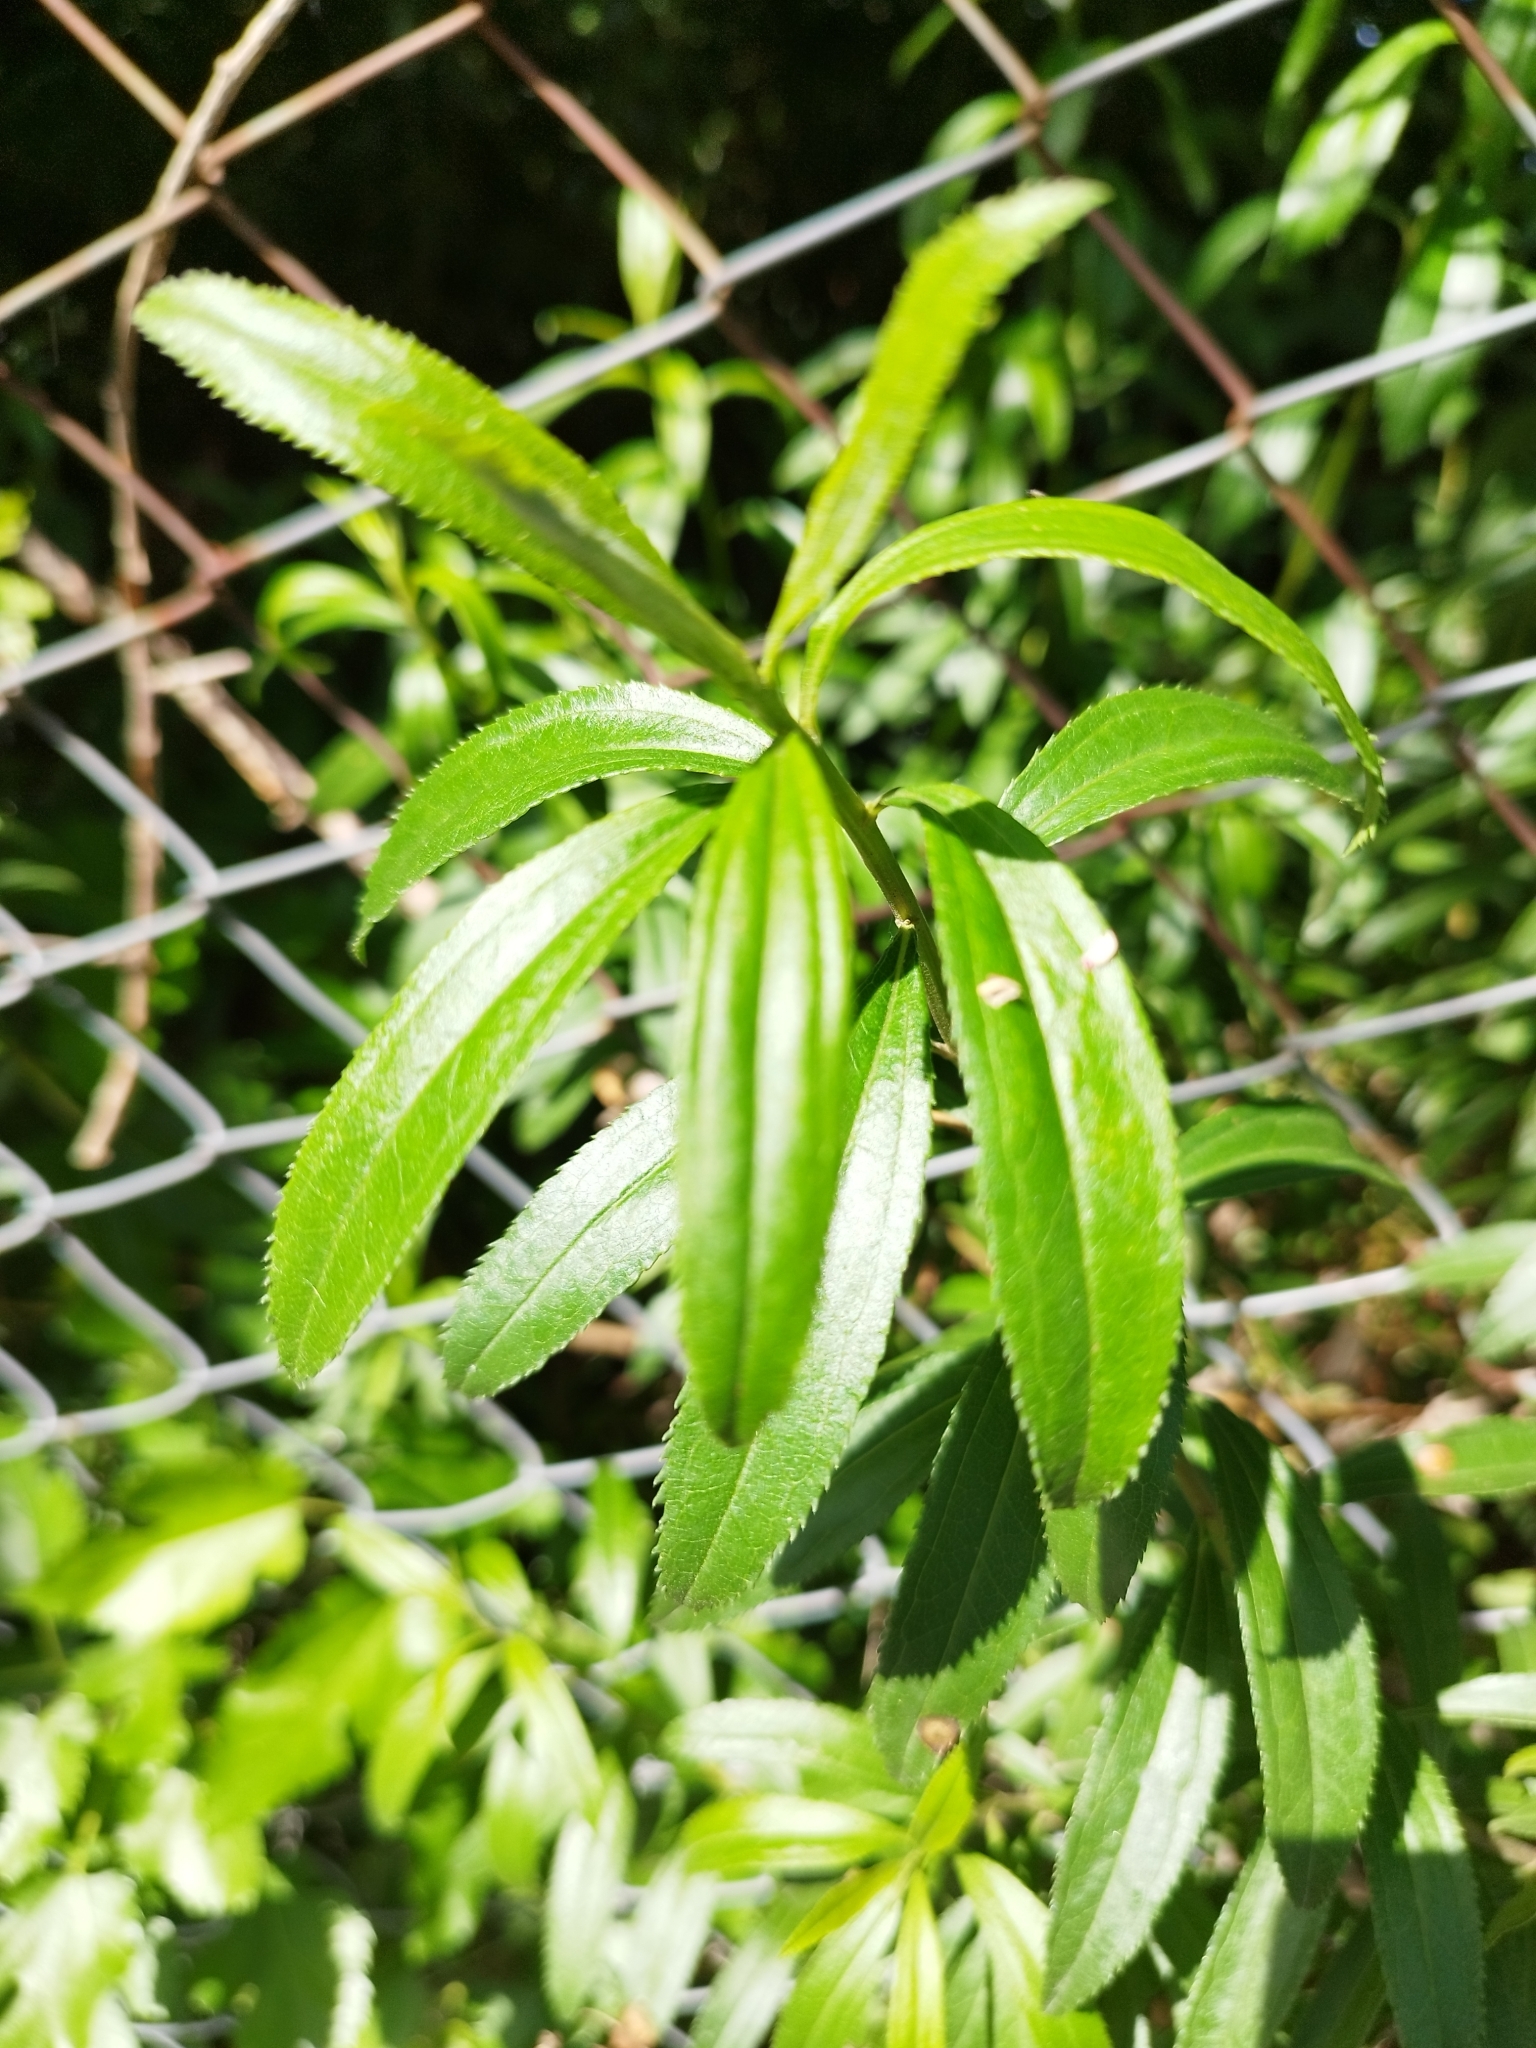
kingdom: Plantae
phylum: Tracheophyta
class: Magnoliopsida
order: Asterales
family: Asteraceae
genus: Baccharis
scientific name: Baccharis punctulata
